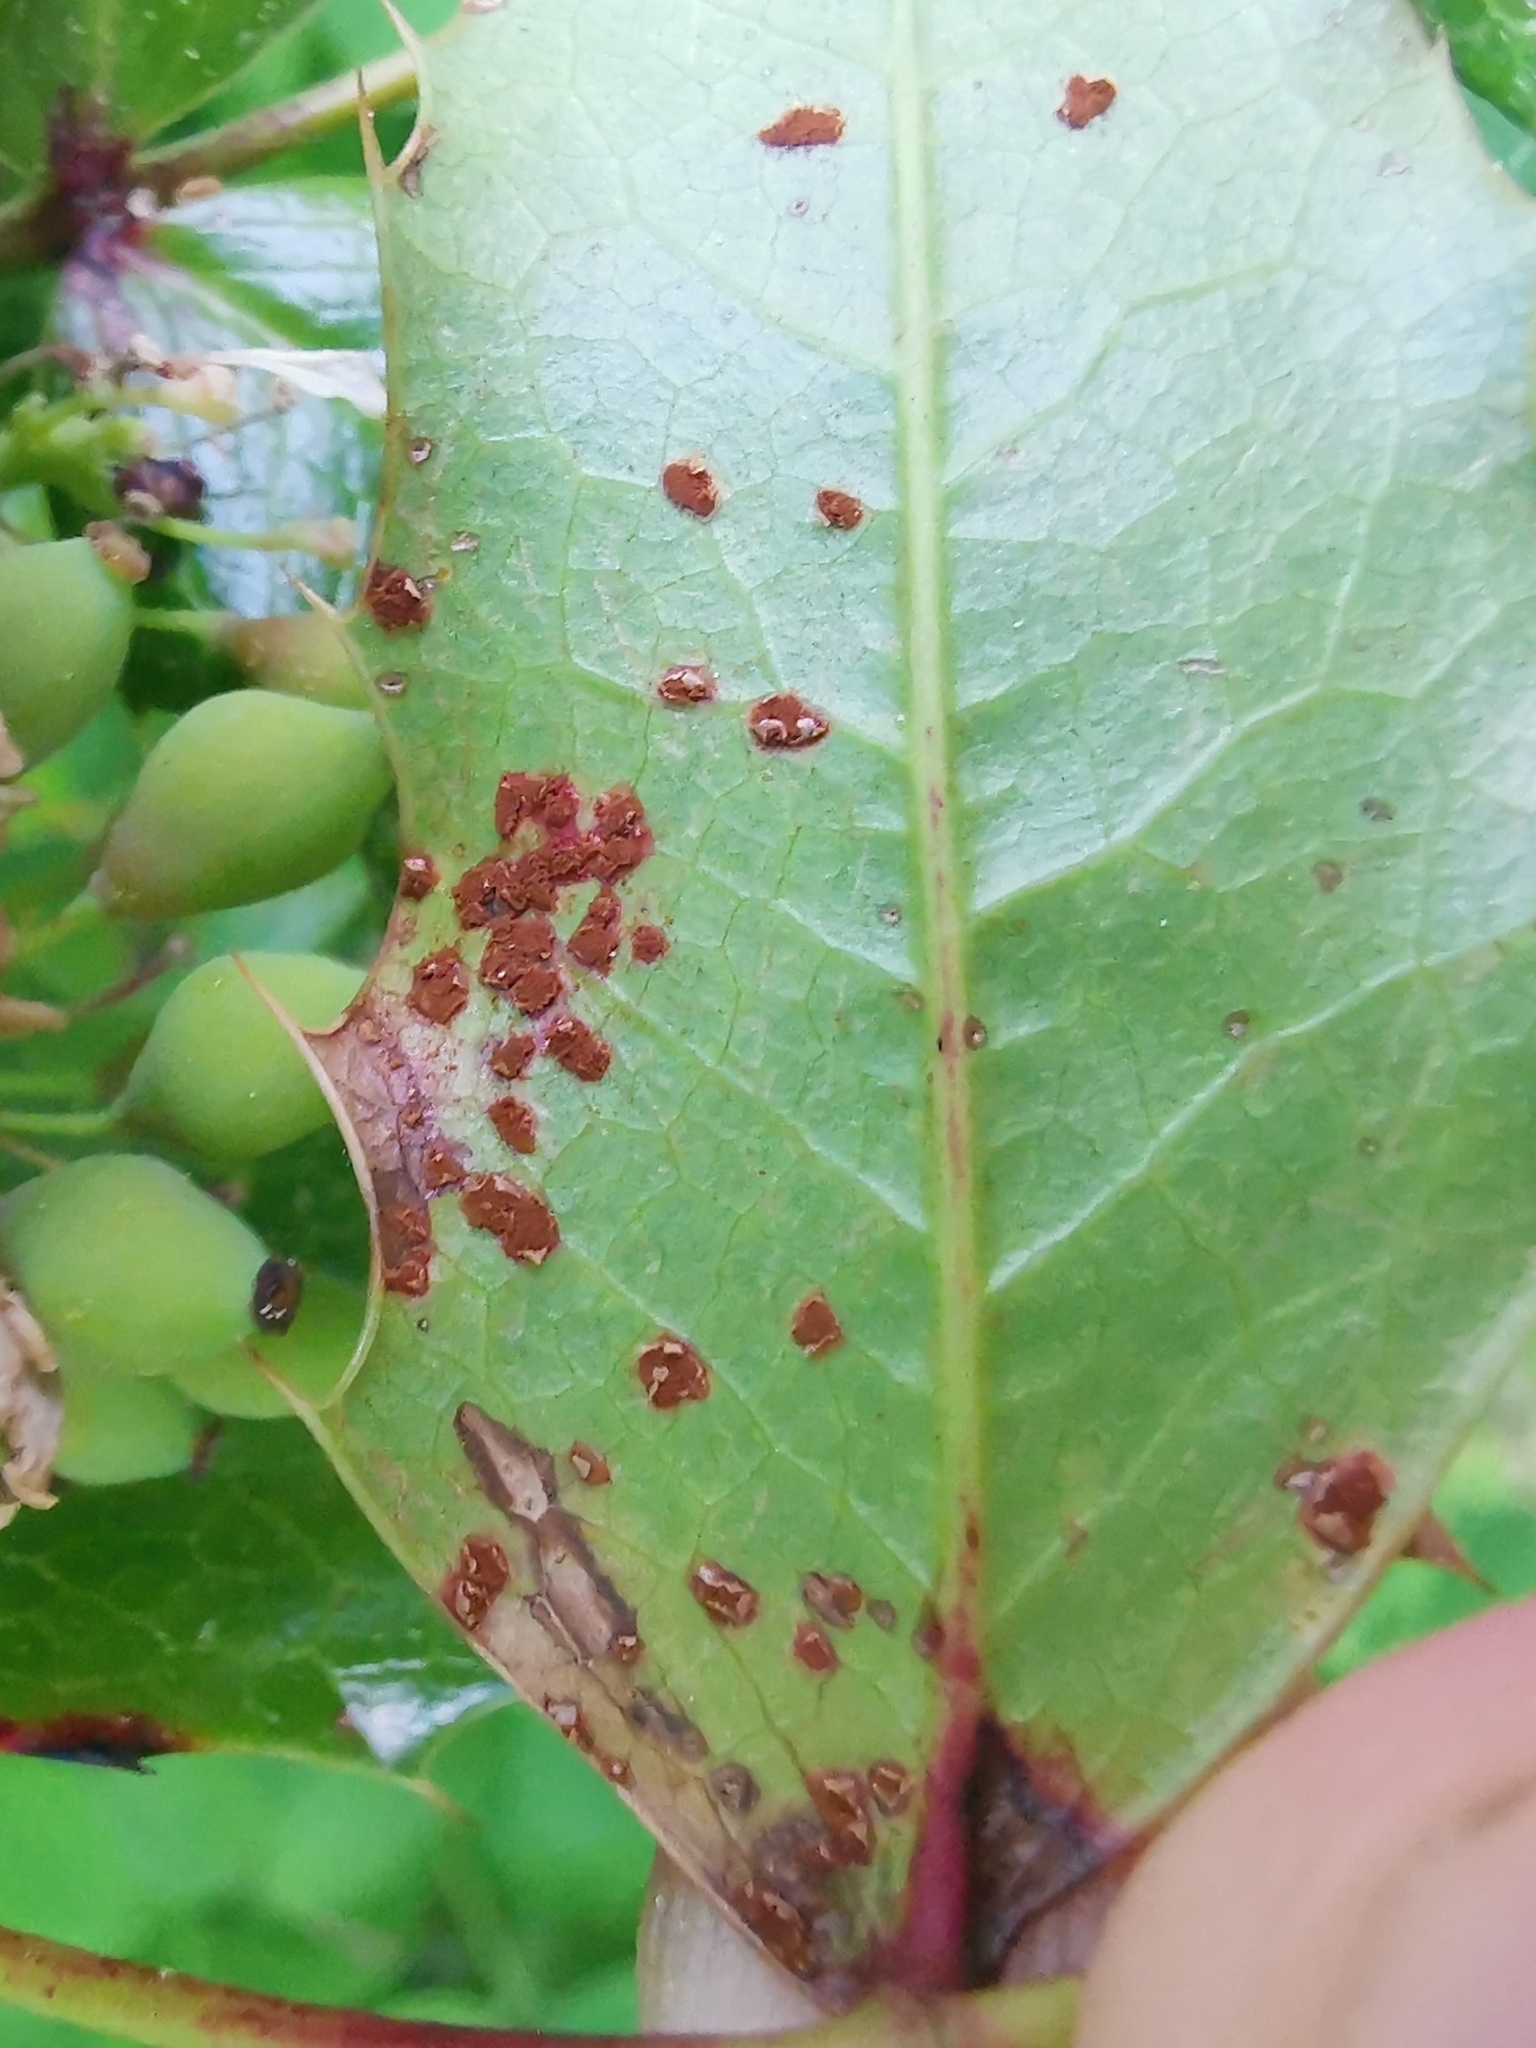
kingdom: Fungi
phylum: Basidiomycota
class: Pucciniomycetes
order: Pucciniales
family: Pucciniaceae
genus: Cumminsiella
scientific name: Cumminsiella mirabilissima
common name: Mahonia rust
